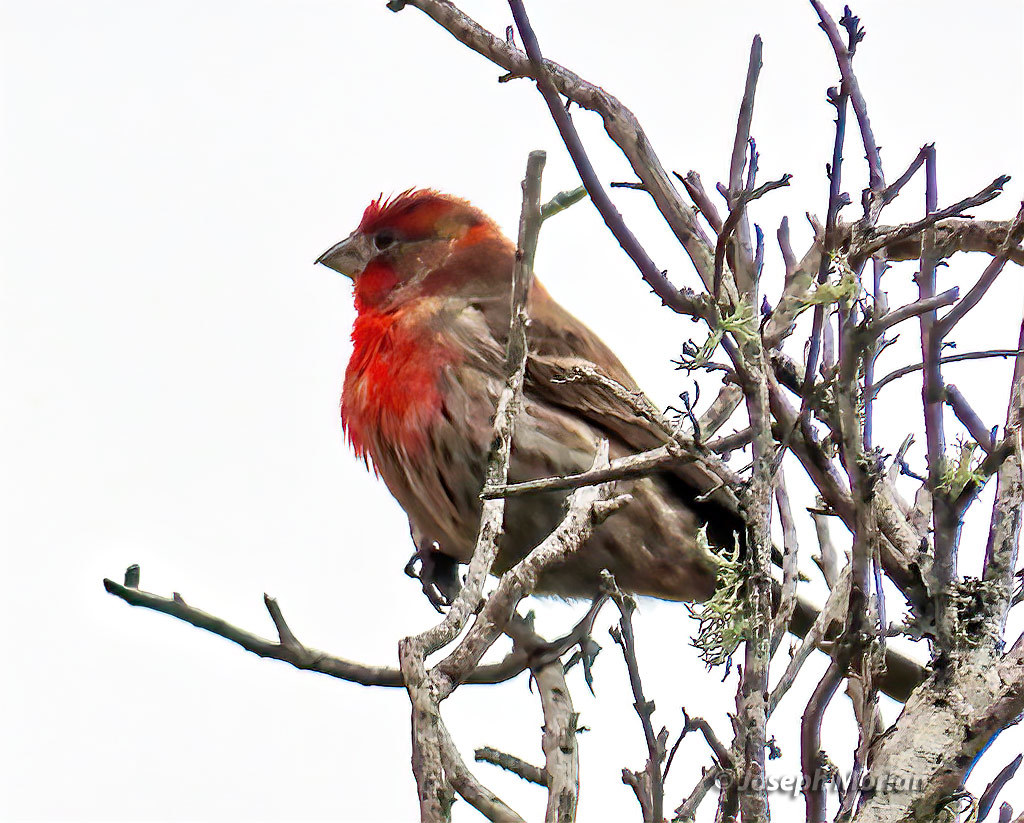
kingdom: Animalia
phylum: Chordata
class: Aves
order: Passeriformes
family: Fringillidae
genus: Haemorhous
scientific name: Haemorhous mexicanus
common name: House finch
